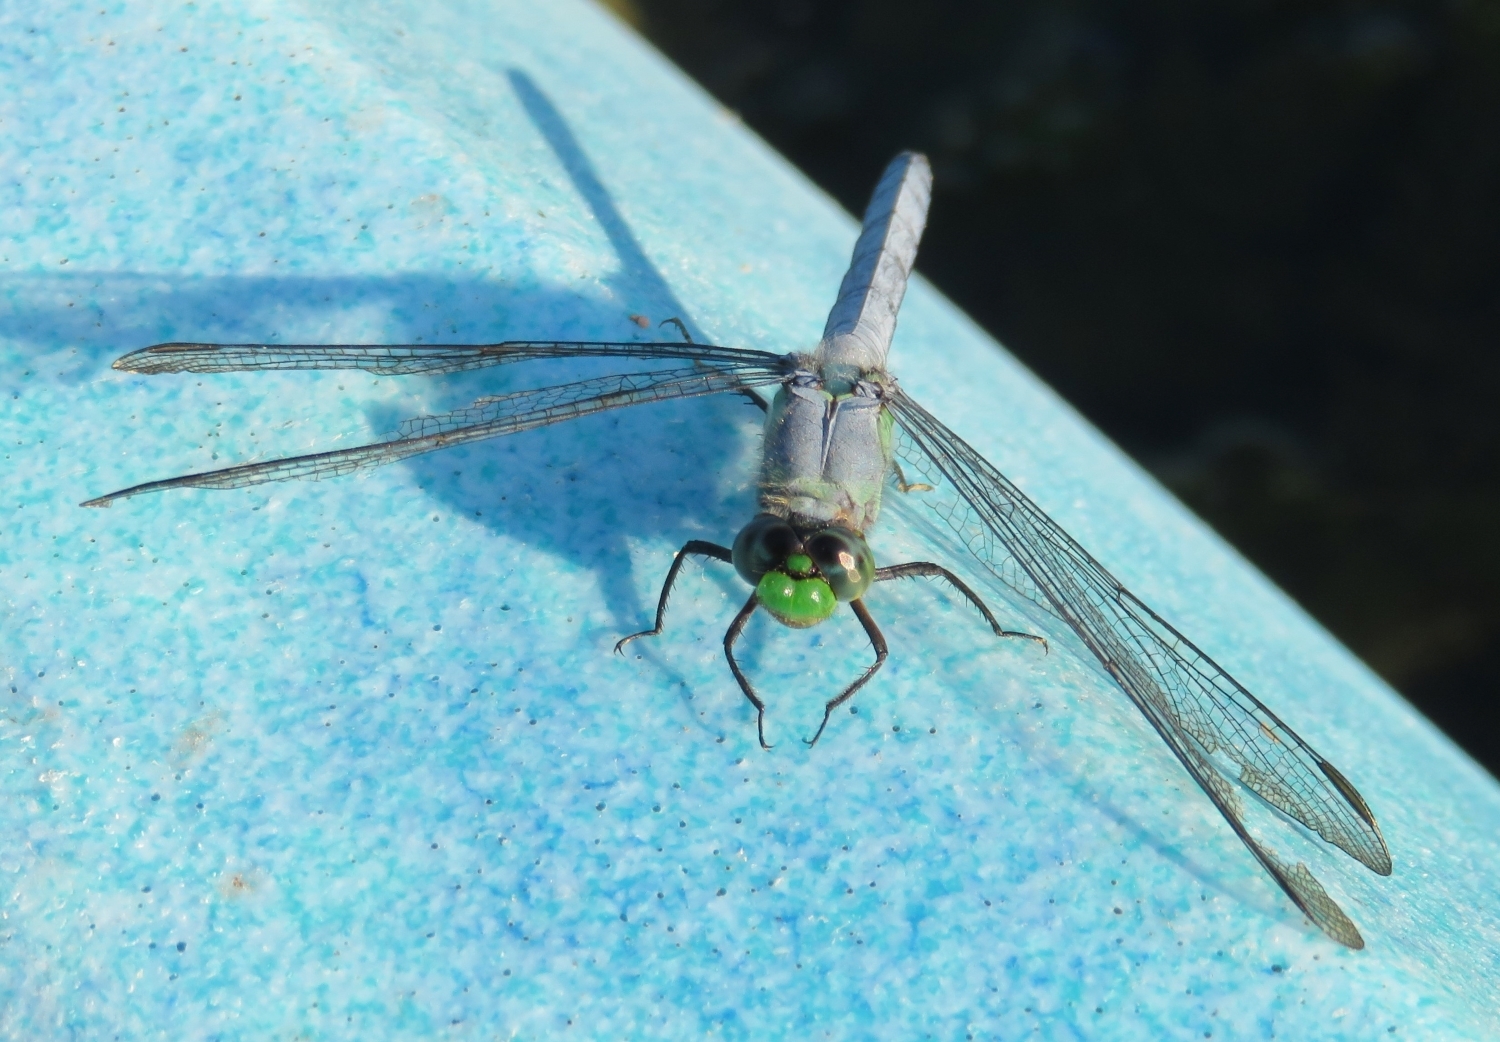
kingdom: Animalia
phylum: Arthropoda
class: Insecta
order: Odonata
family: Libellulidae
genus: Erythemis
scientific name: Erythemis simplicicollis
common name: Eastern pondhawk
